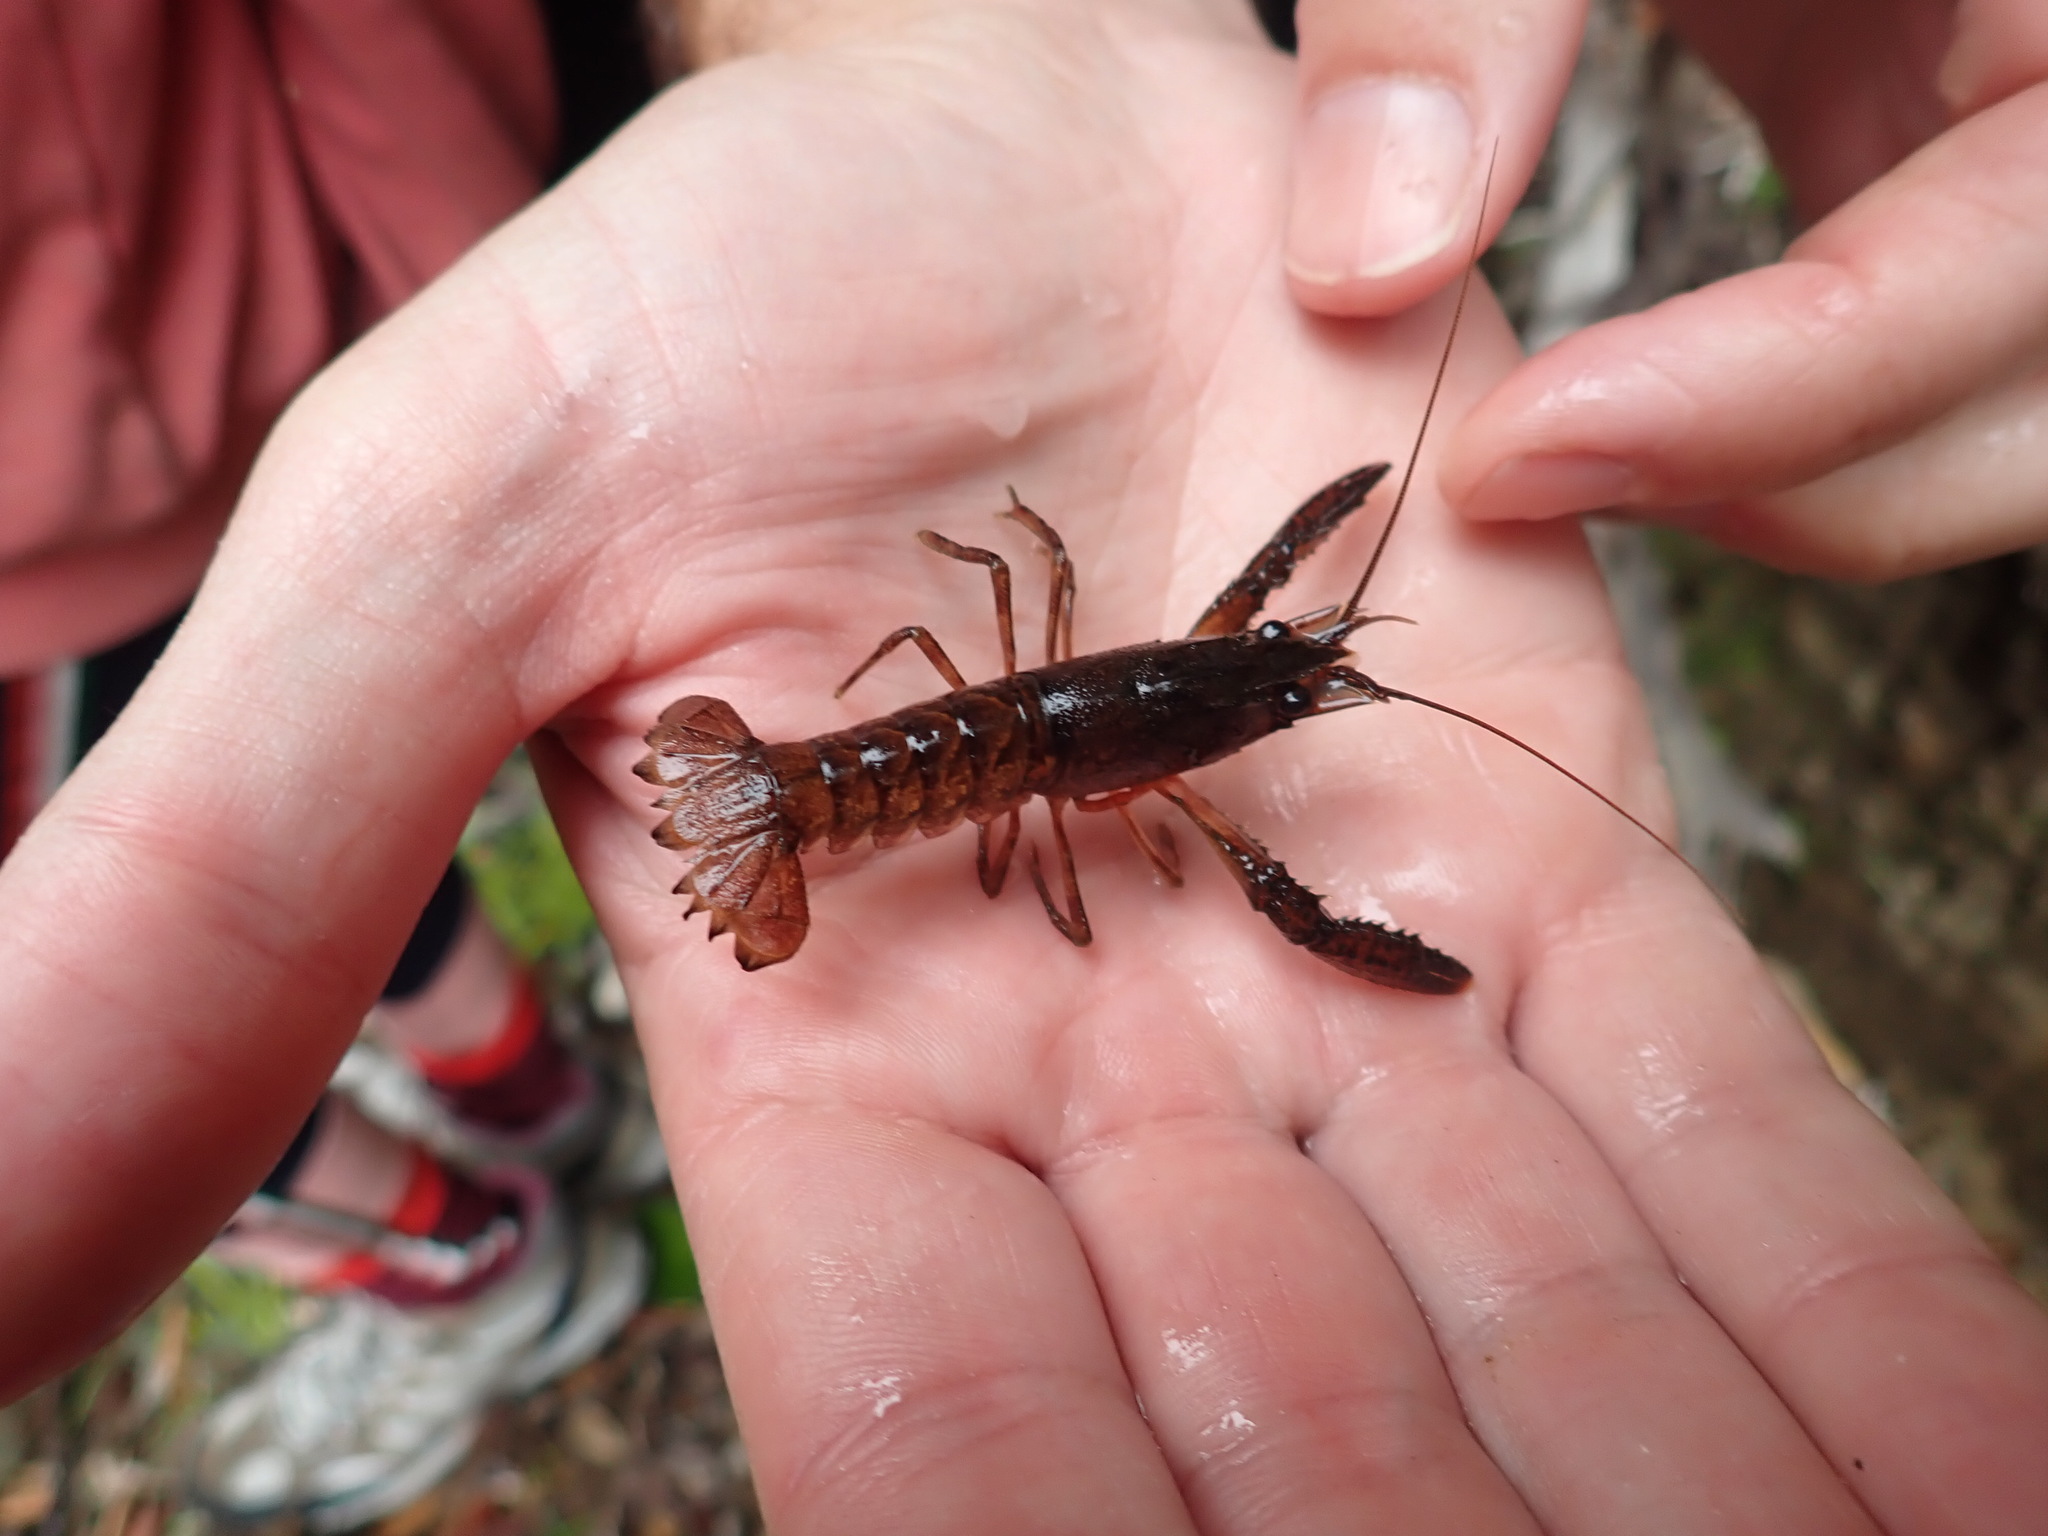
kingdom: Animalia
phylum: Arthropoda
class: Malacostraca
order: Decapoda
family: Parastacidae
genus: Paranephrops
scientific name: Paranephrops planifrons
